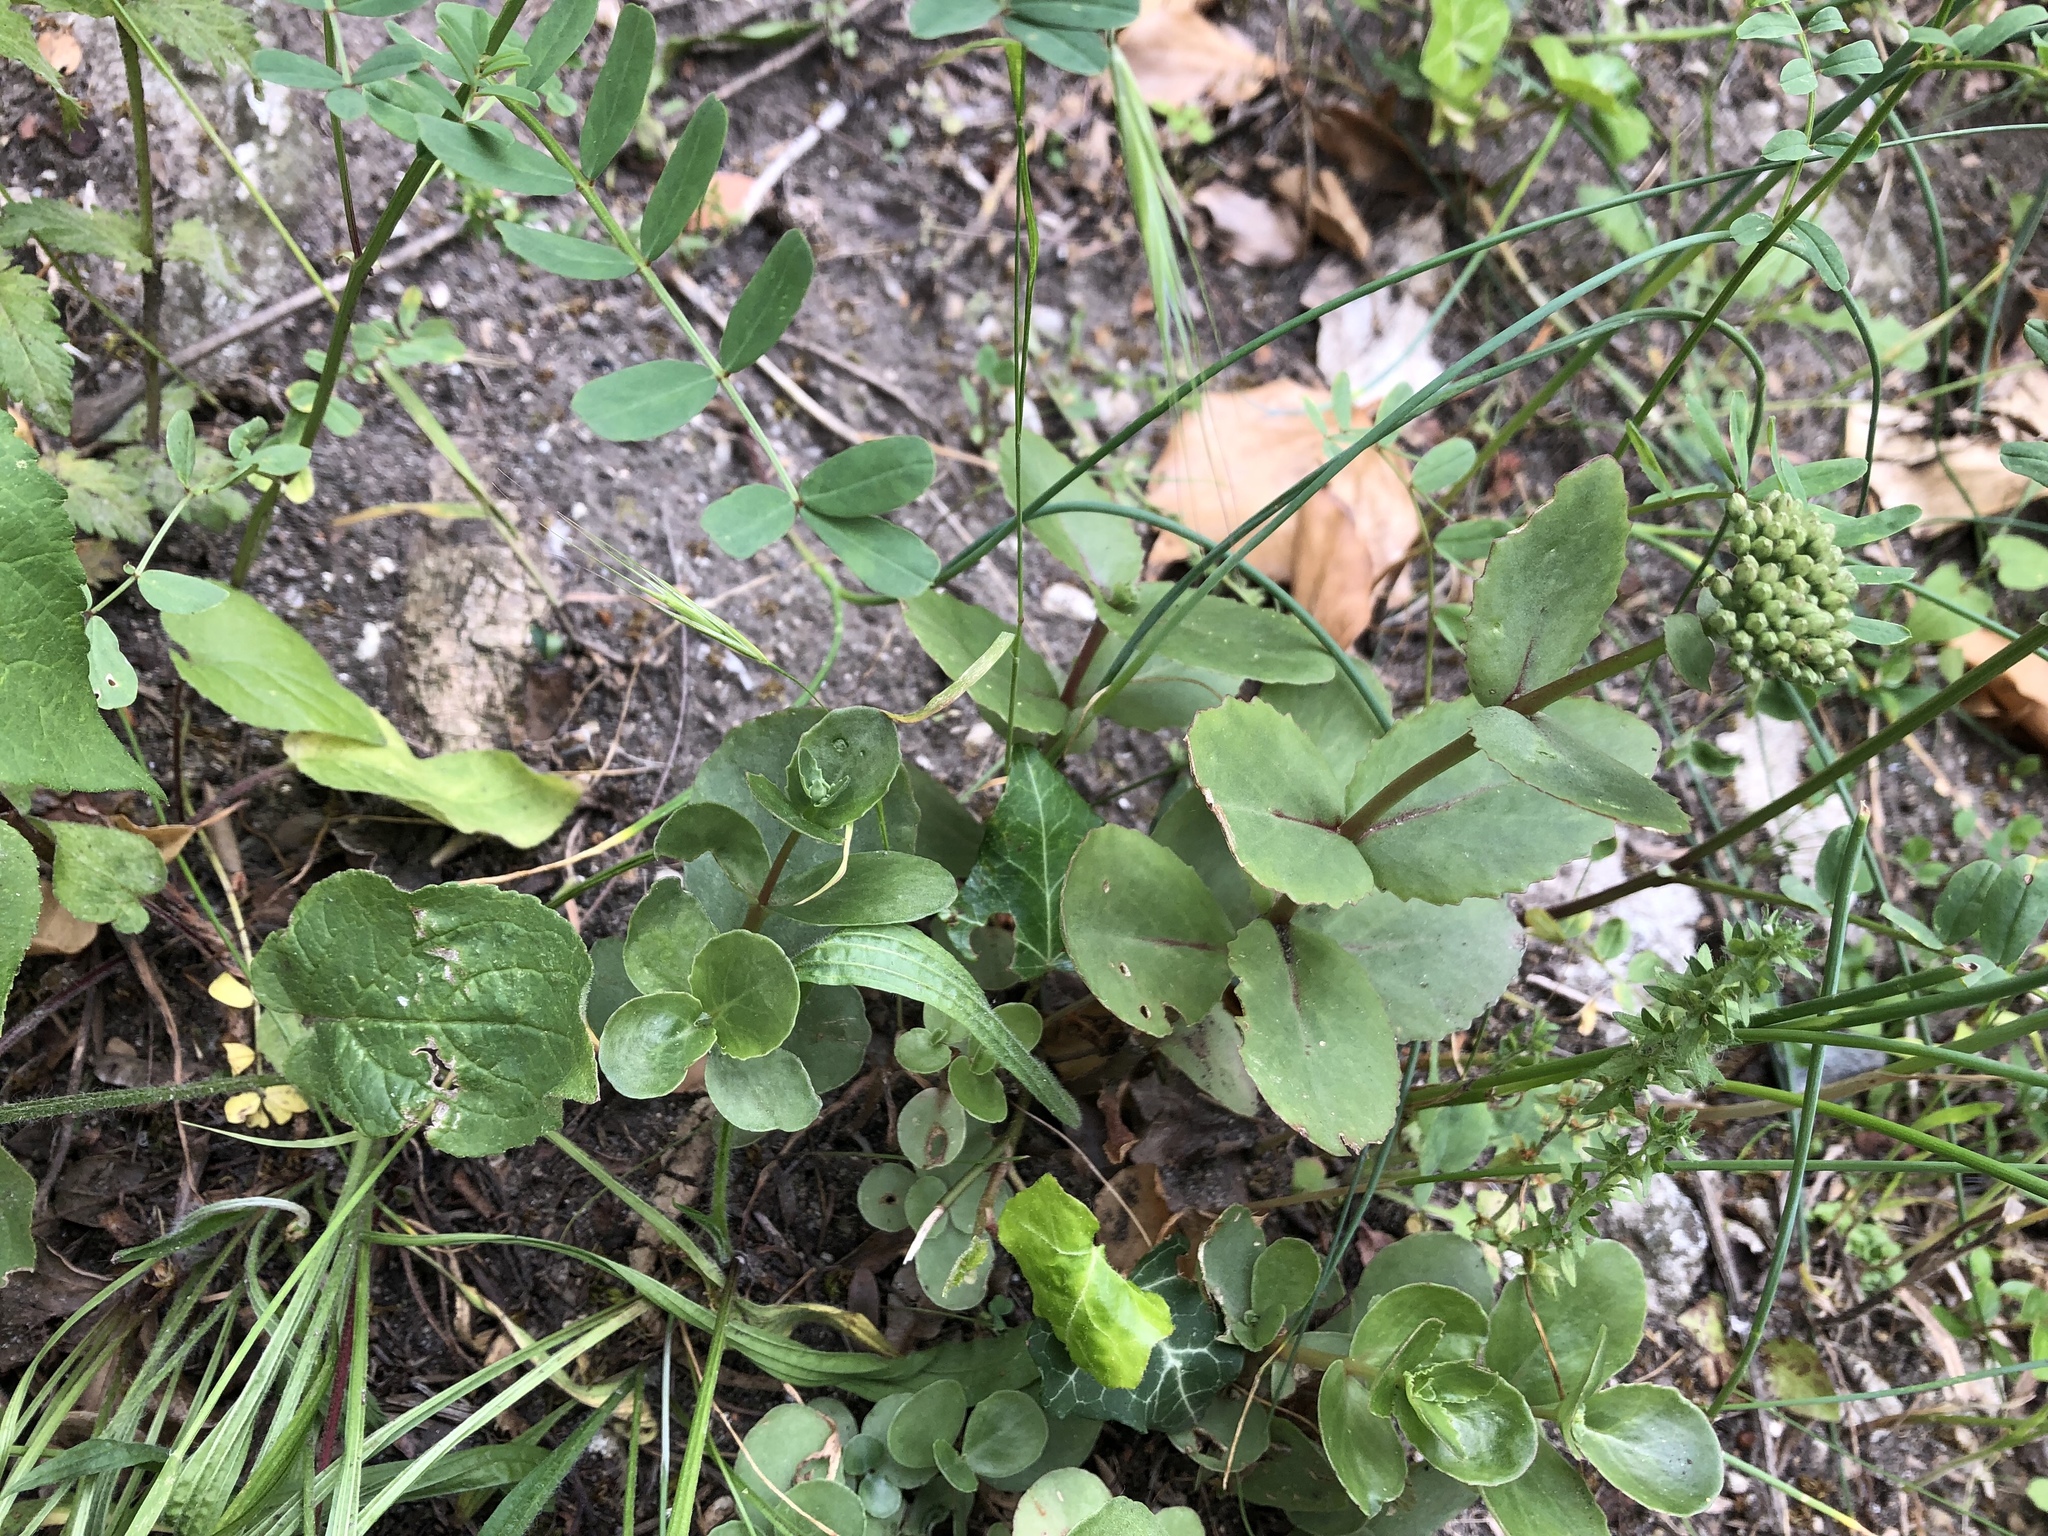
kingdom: Plantae
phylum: Tracheophyta
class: Magnoliopsida
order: Saxifragales
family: Crassulaceae
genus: Hylotelephium
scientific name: Hylotelephium maximum
